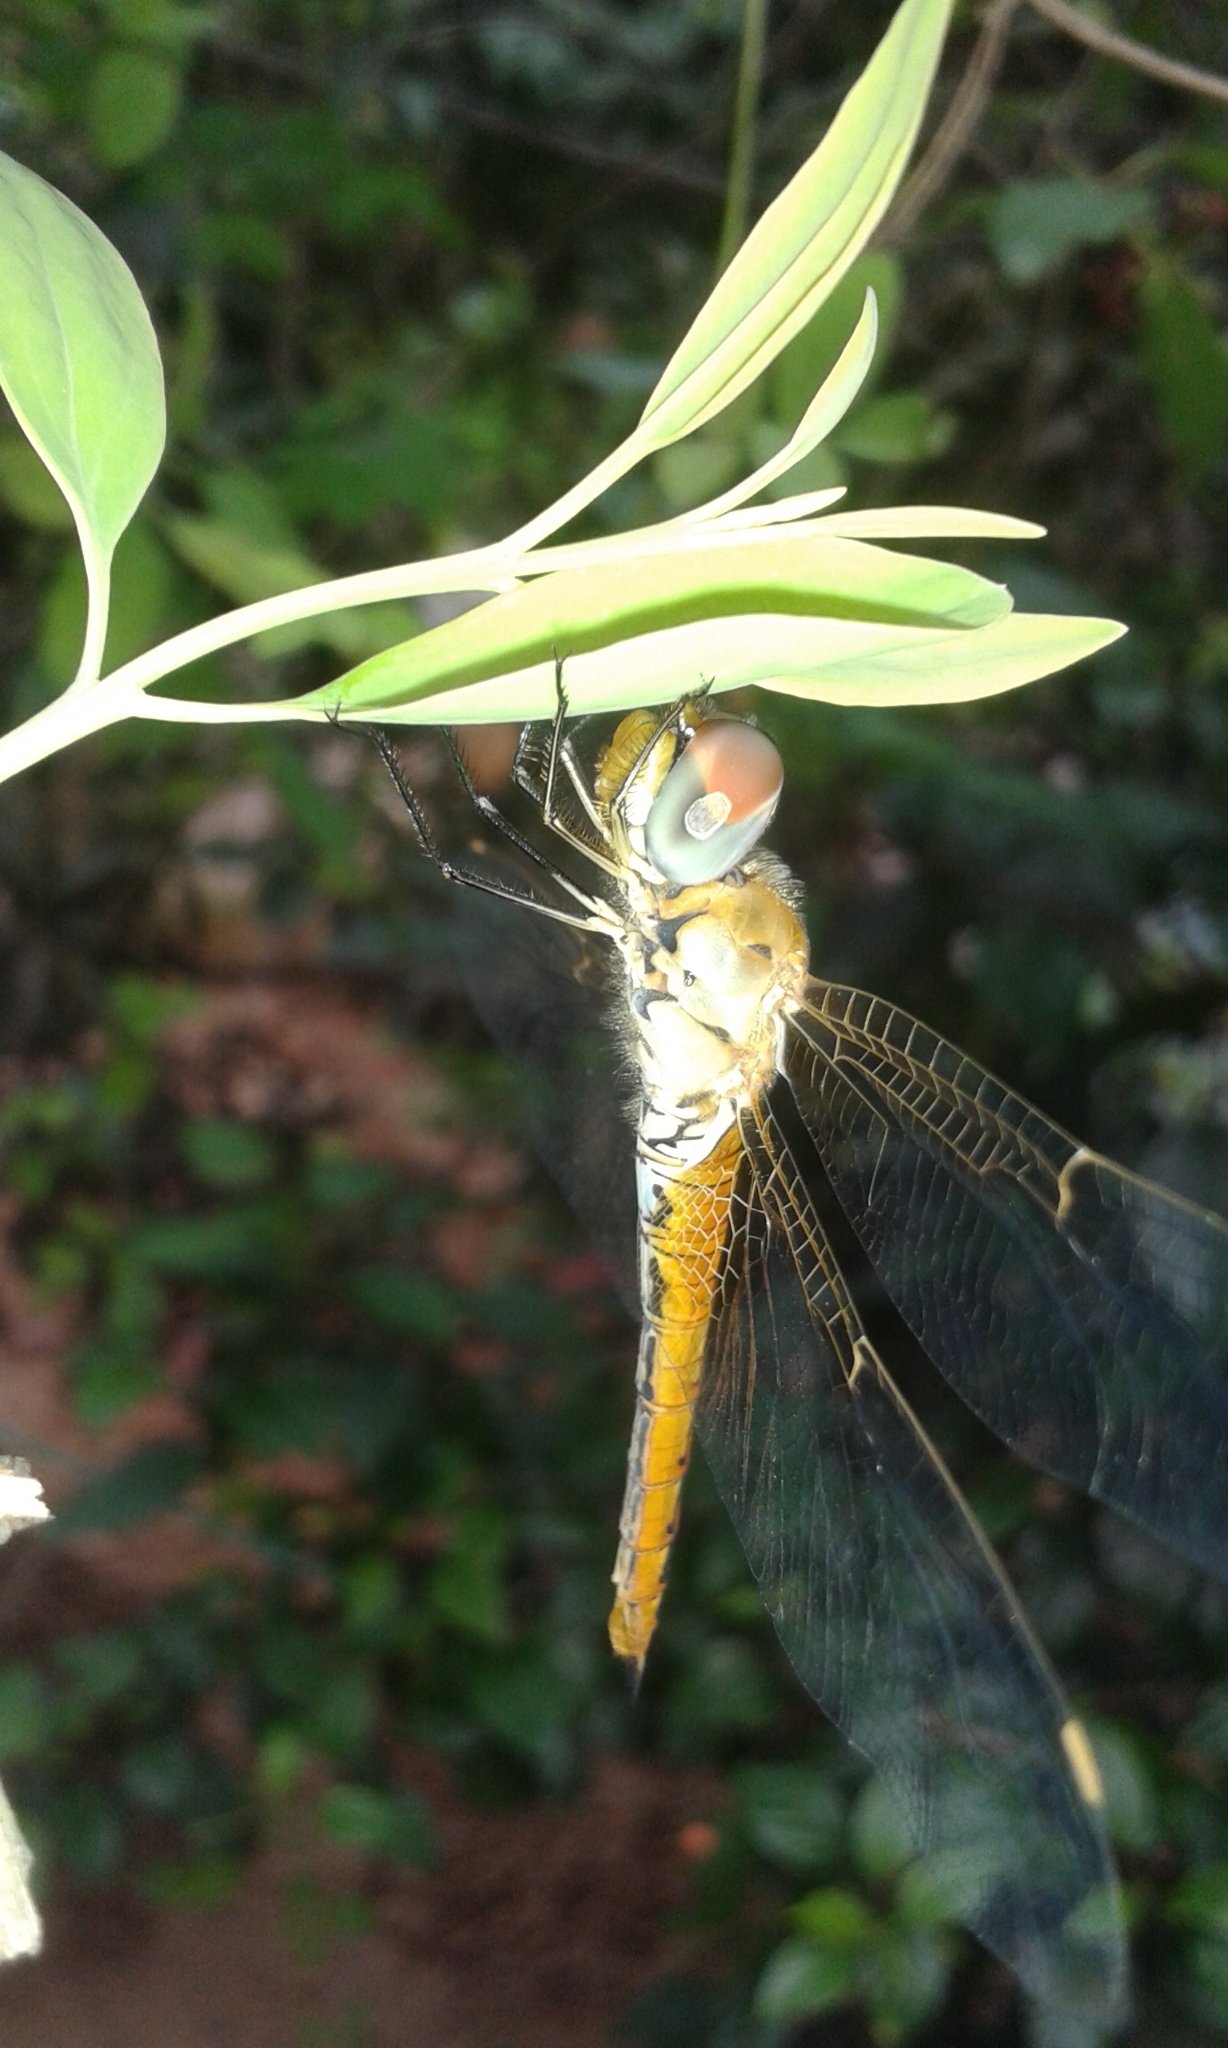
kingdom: Animalia
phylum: Arthropoda
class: Insecta
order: Odonata
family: Libellulidae
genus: Pantala
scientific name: Pantala flavescens
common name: Wandering glider
